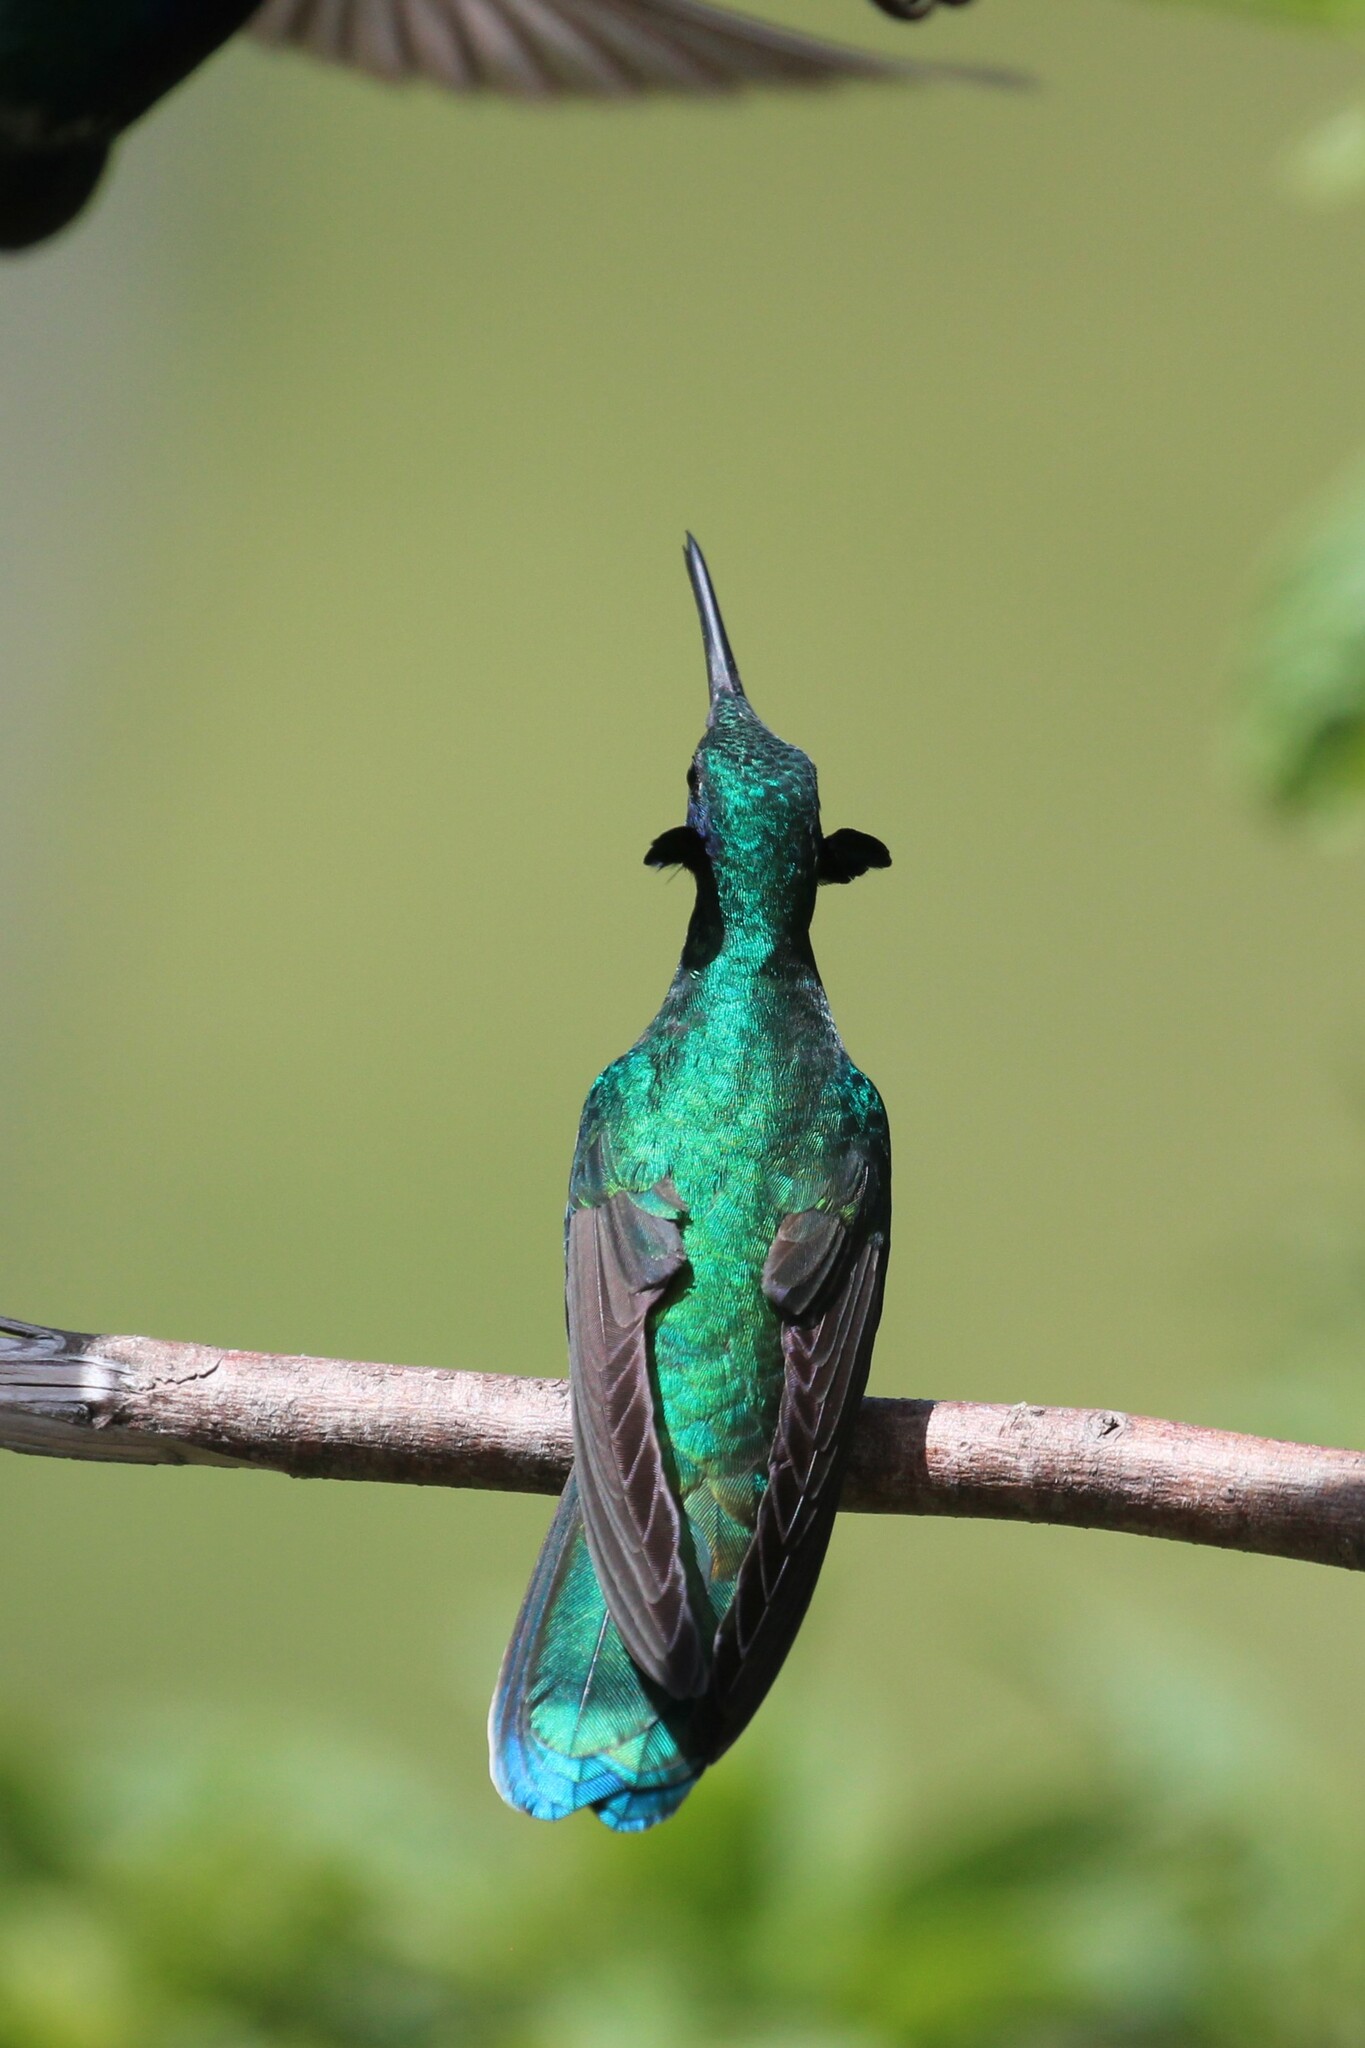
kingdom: Animalia
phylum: Chordata
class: Aves
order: Apodiformes
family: Trochilidae
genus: Colibri
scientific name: Colibri coruscans
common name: Sparkling violetear
